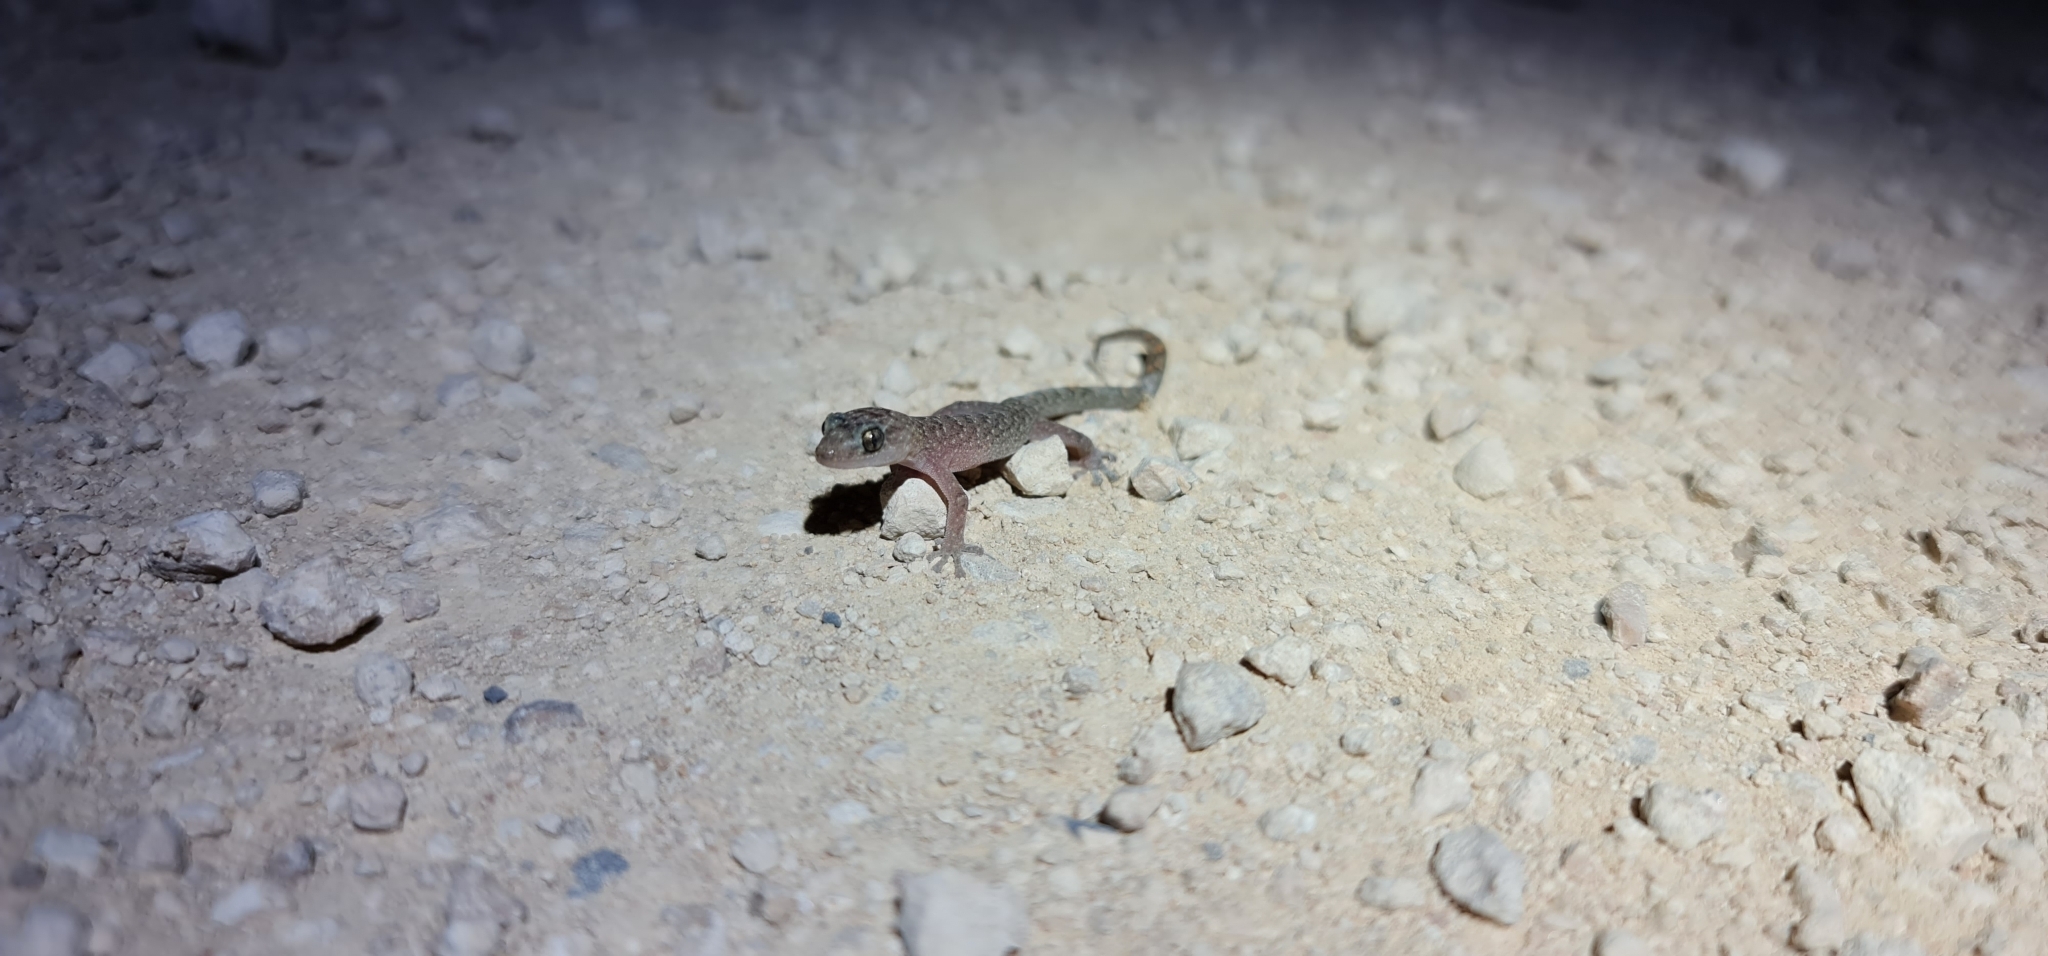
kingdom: Animalia
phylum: Chordata
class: Squamata
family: Gekkonidae
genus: Christinus
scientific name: Christinus marmoratus
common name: Marbled gecko
